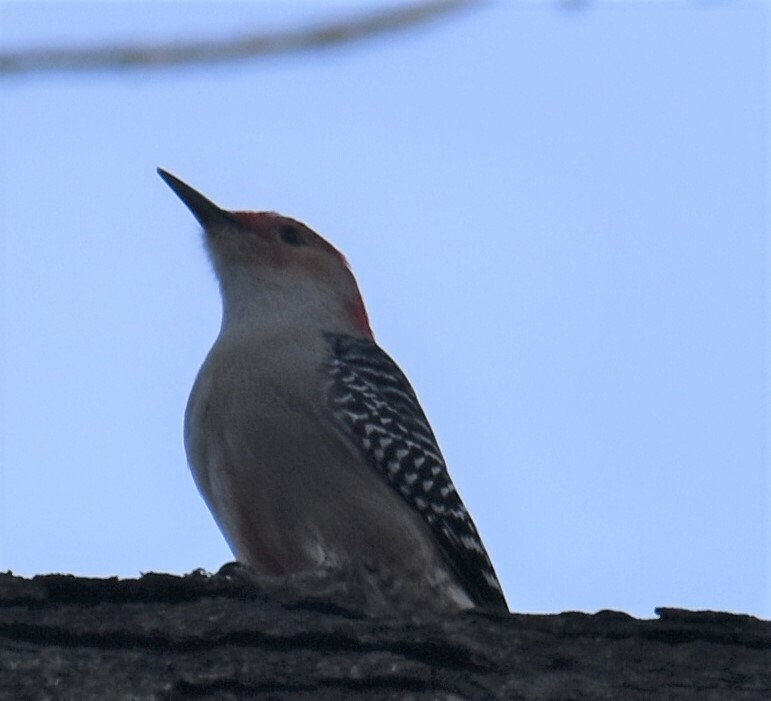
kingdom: Animalia
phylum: Chordata
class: Aves
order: Piciformes
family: Picidae
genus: Melanerpes
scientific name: Melanerpes carolinus
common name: Red-bellied woodpecker
